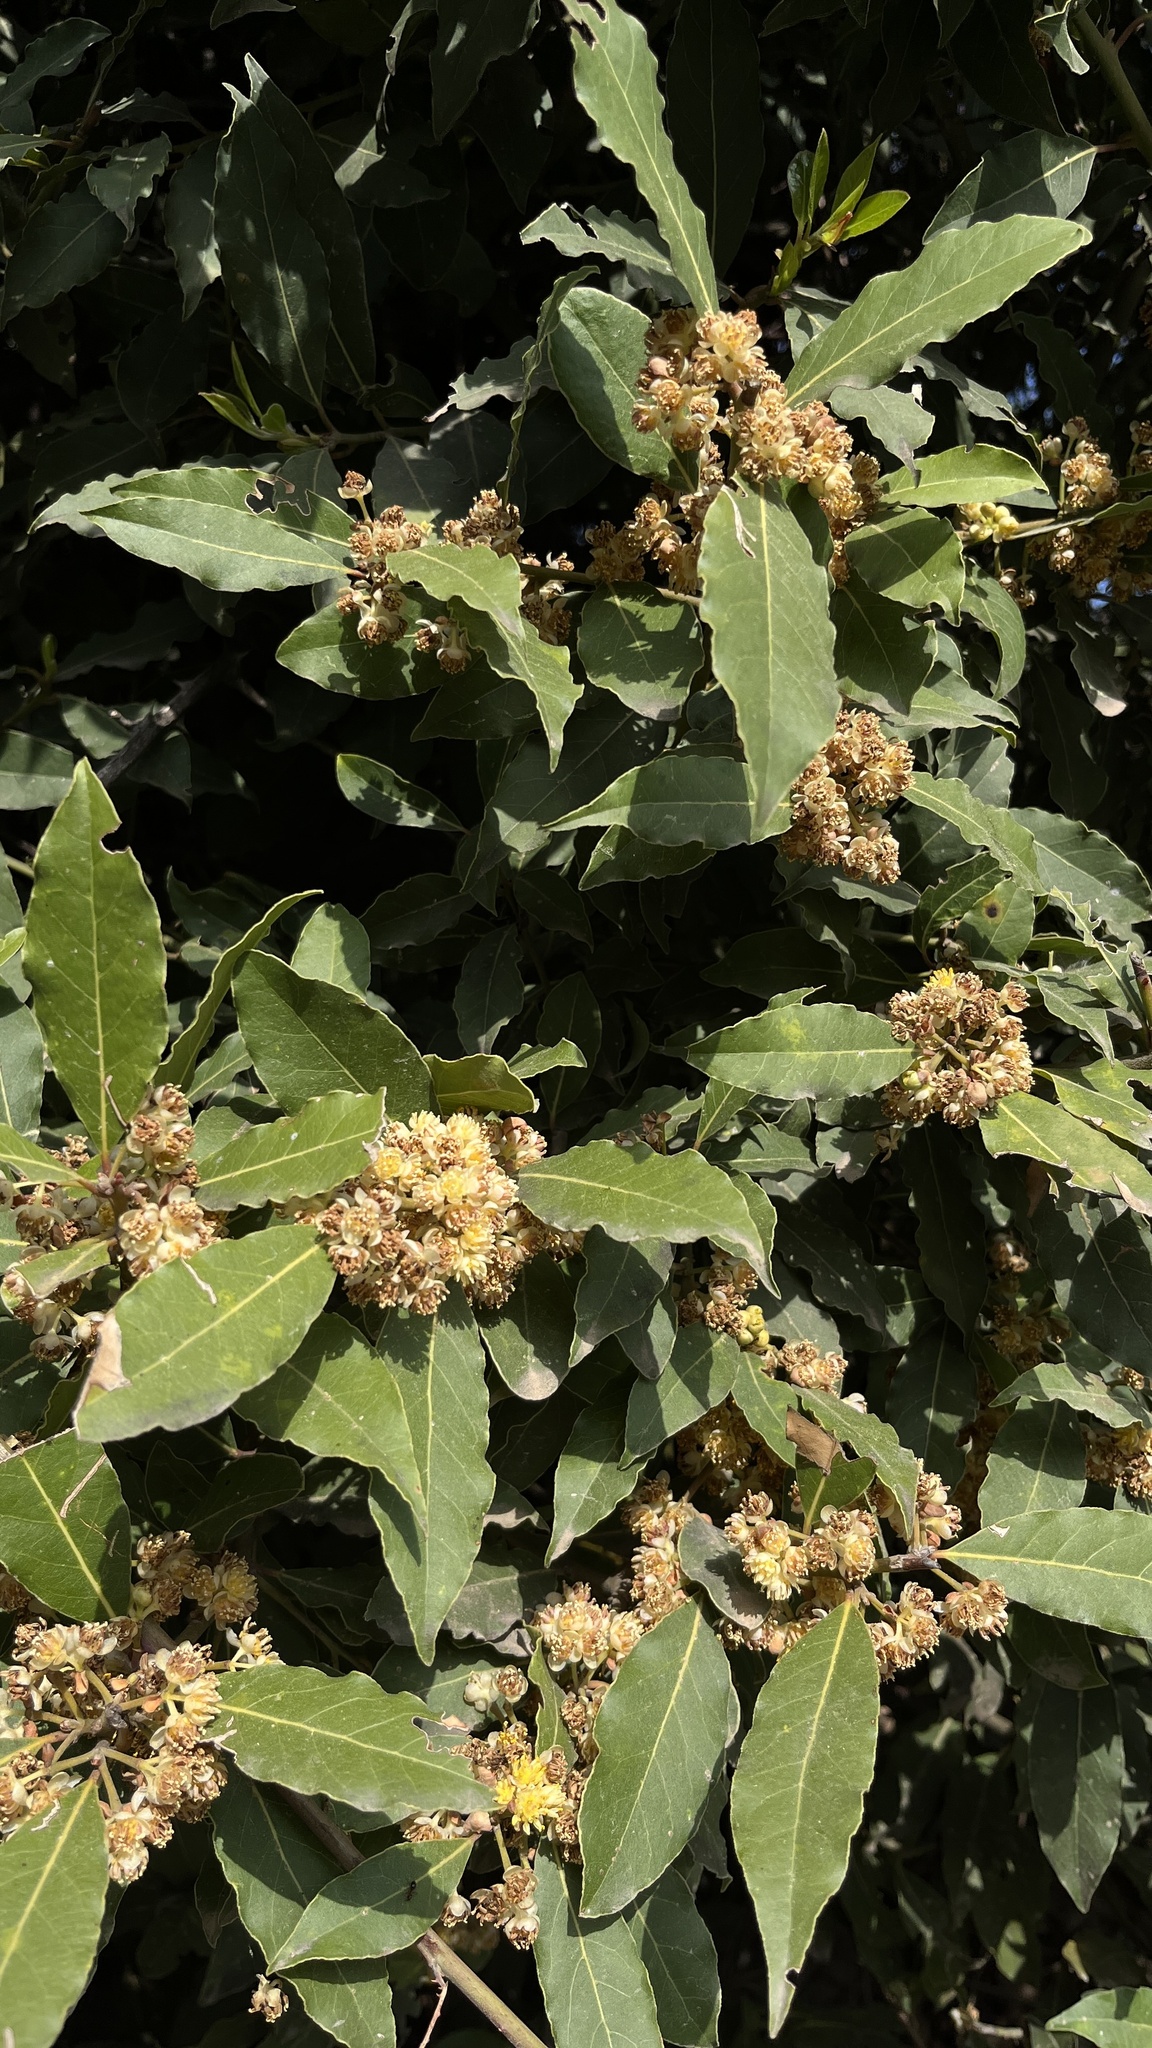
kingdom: Plantae
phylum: Tracheophyta
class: Magnoliopsida
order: Laurales
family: Lauraceae
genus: Laurus
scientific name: Laurus nobilis
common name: Bay
